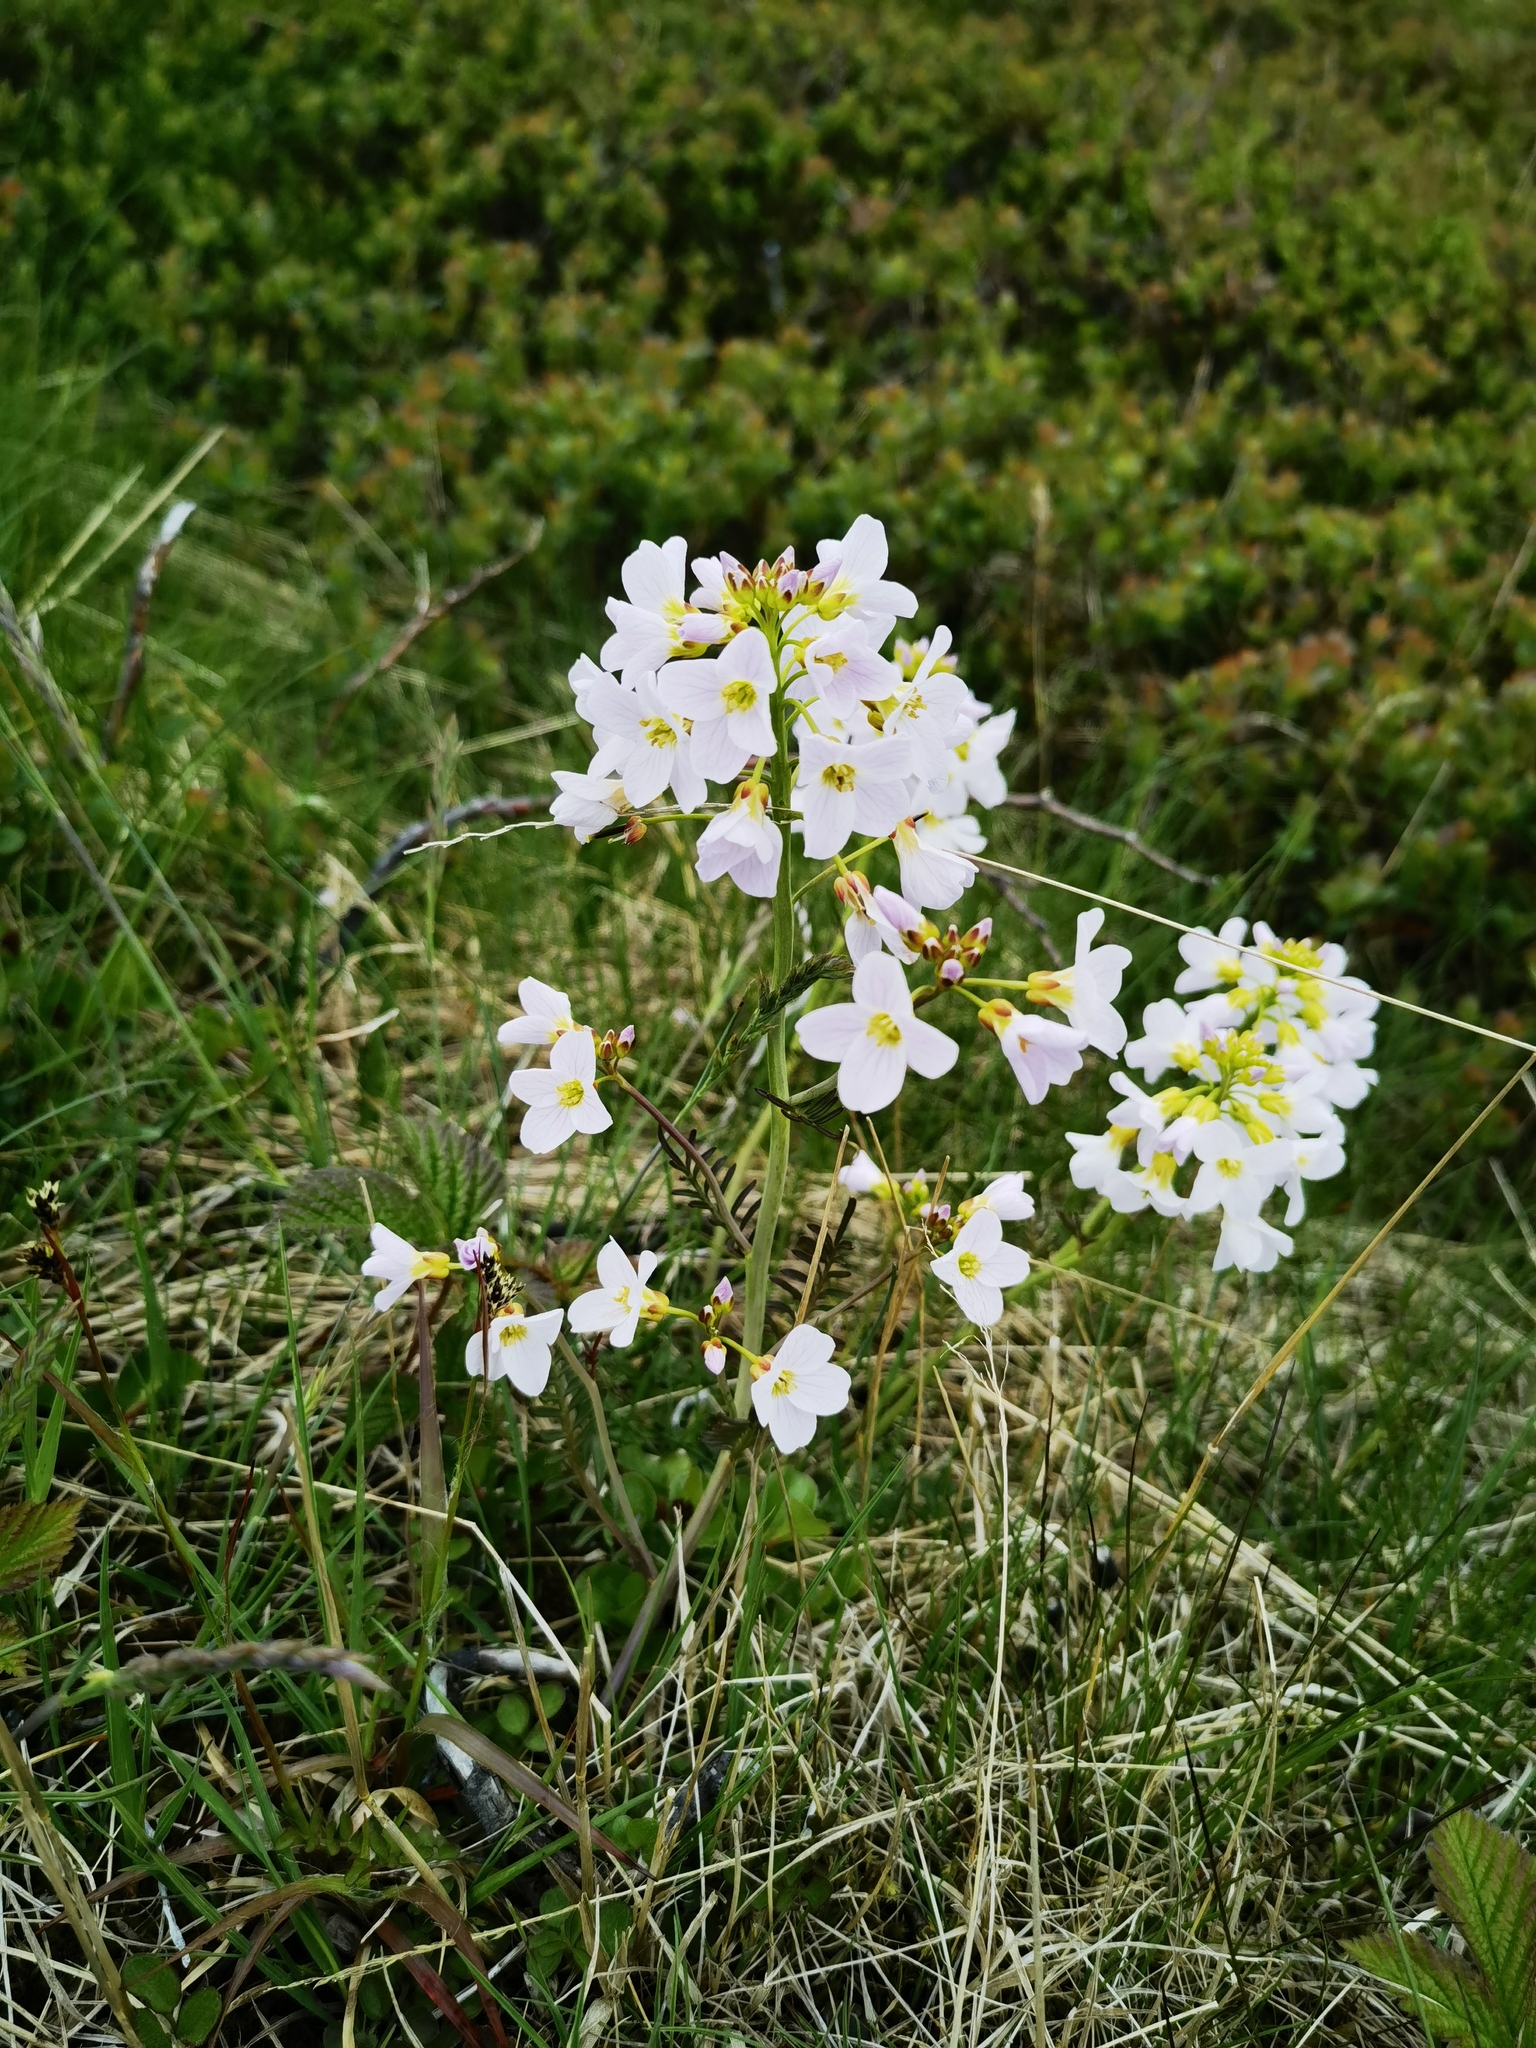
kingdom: Plantae
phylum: Tracheophyta
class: Magnoliopsida
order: Brassicales
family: Brassicaceae
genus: Cardamine
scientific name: Cardamine pratensis
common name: Cuckoo flower
